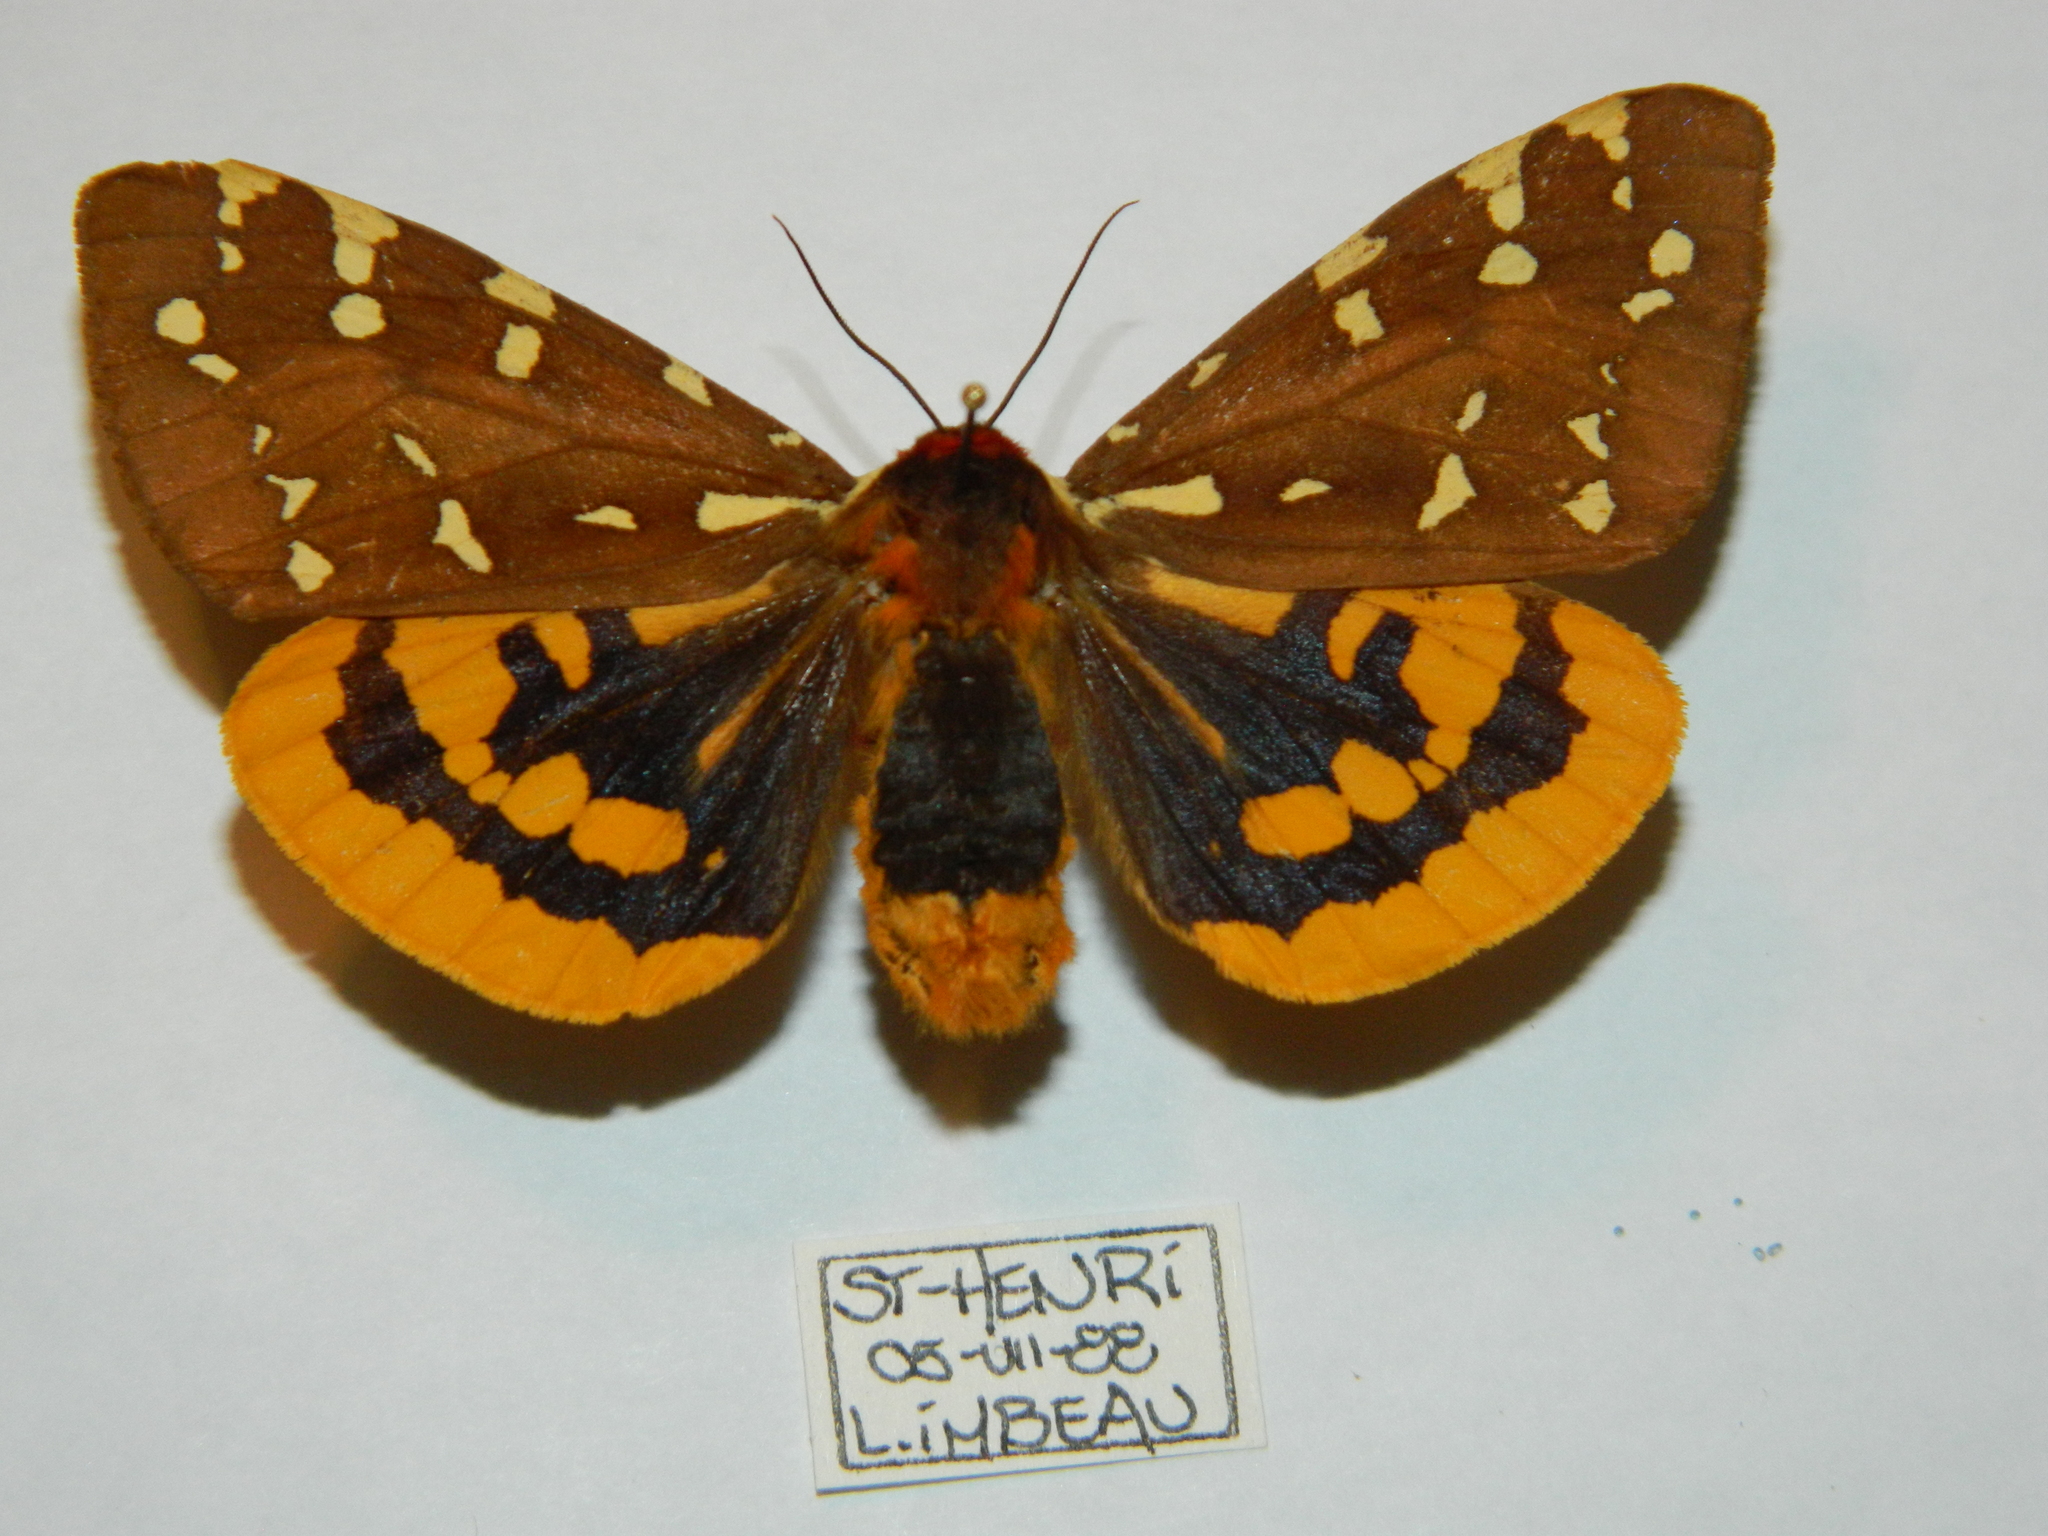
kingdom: Animalia
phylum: Arthropoda
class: Insecta
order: Lepidoptera
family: Erebidae
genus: Arctia
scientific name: Arctia parthenos
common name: St. lawrence tiger moth
